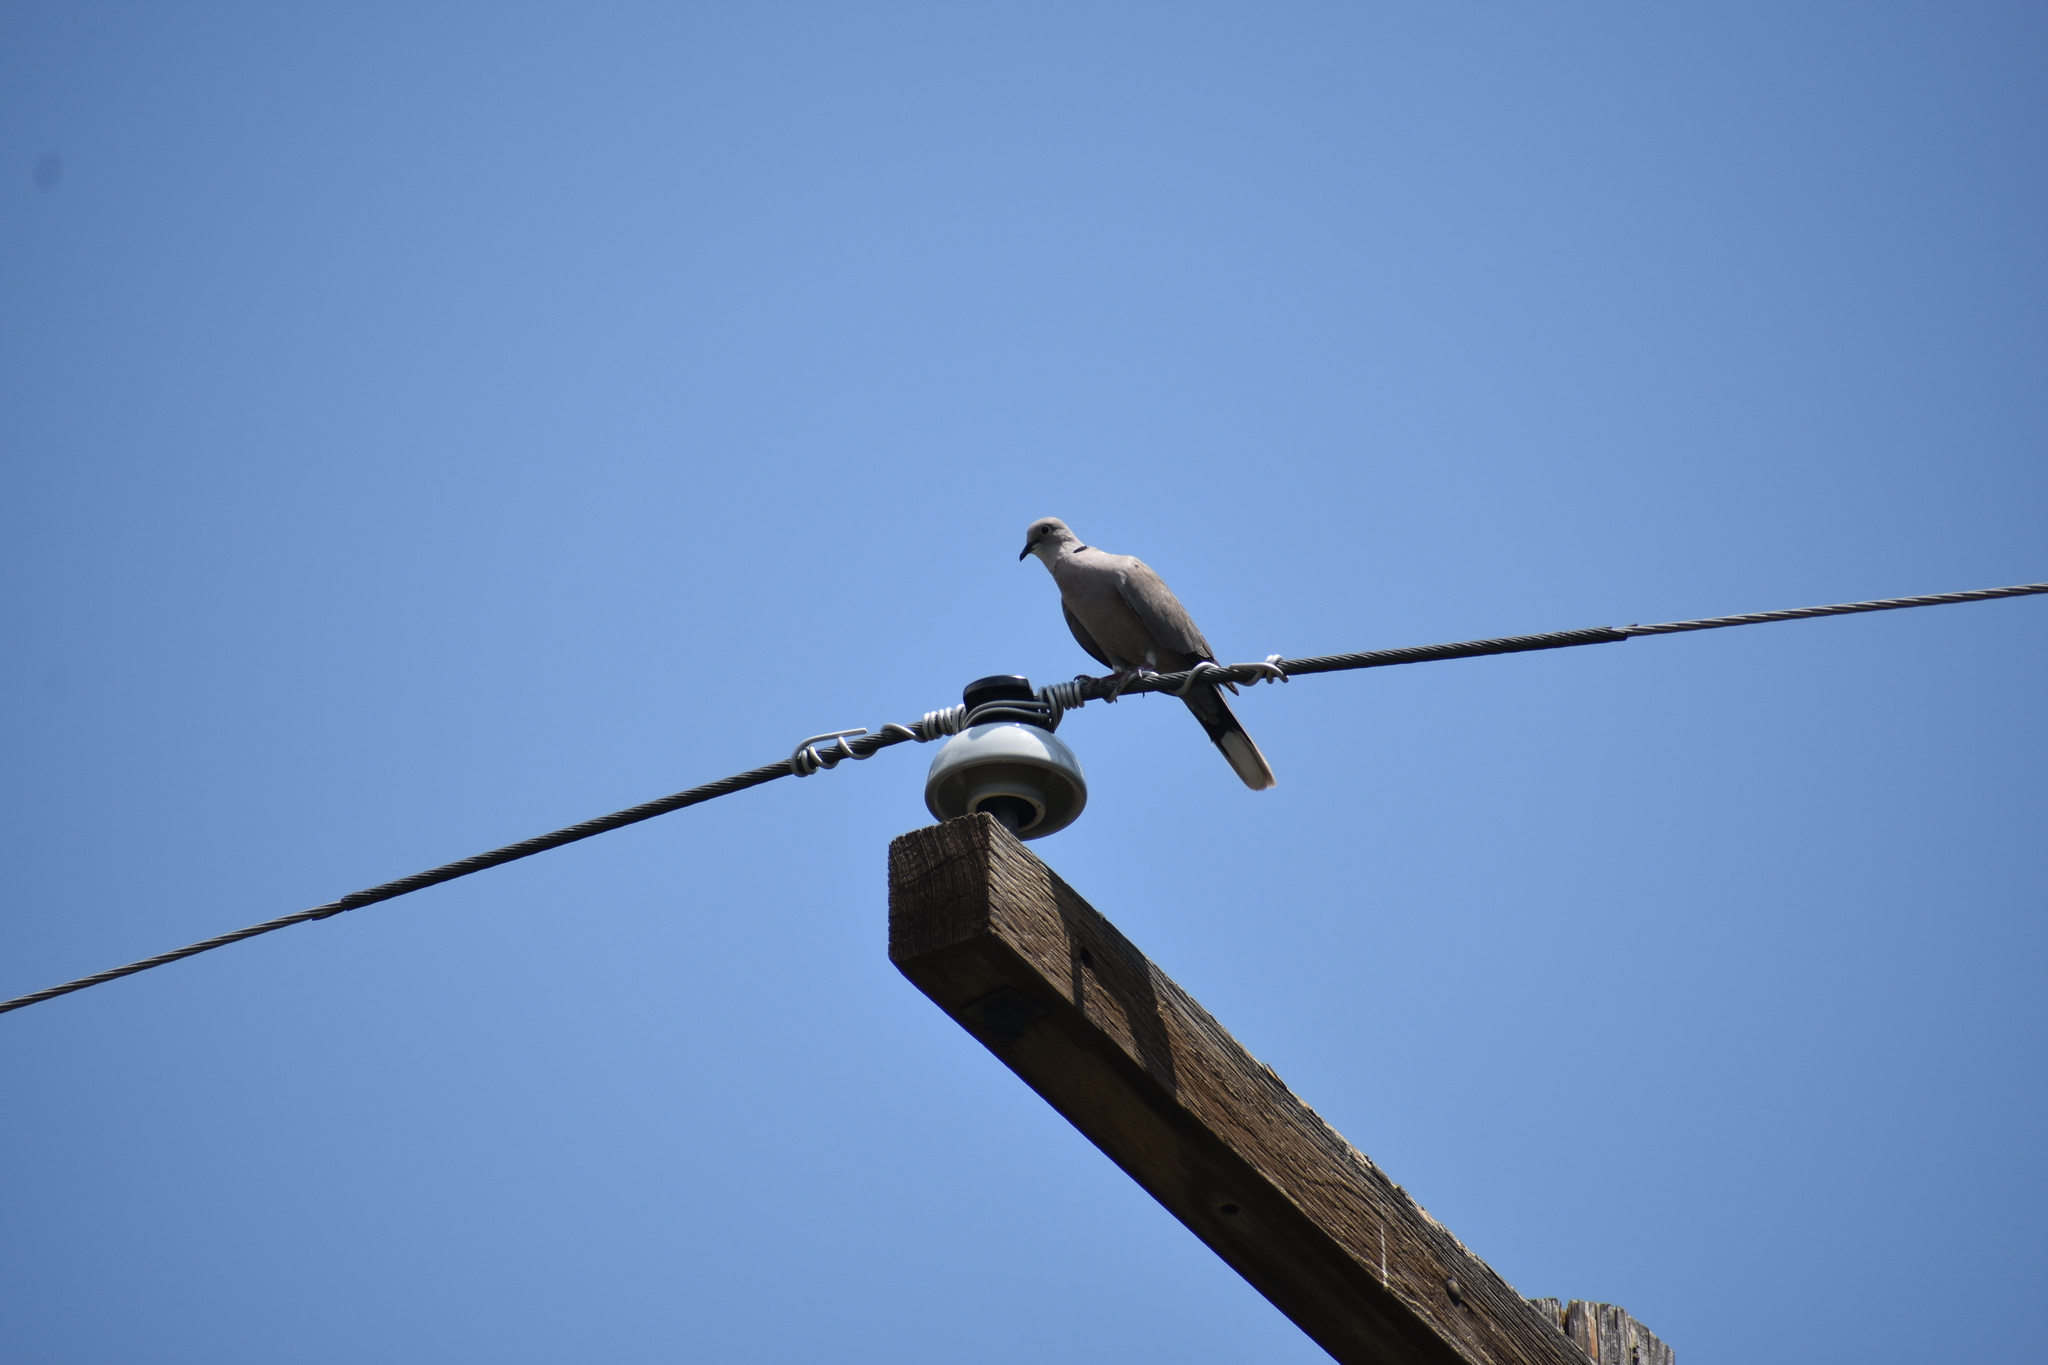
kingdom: Animalia
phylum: Chordata
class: Aves
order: Columbiformes
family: Columbidae
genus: Streptopelia
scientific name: Streptopelia decaocto
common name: Eurasian collared dove
